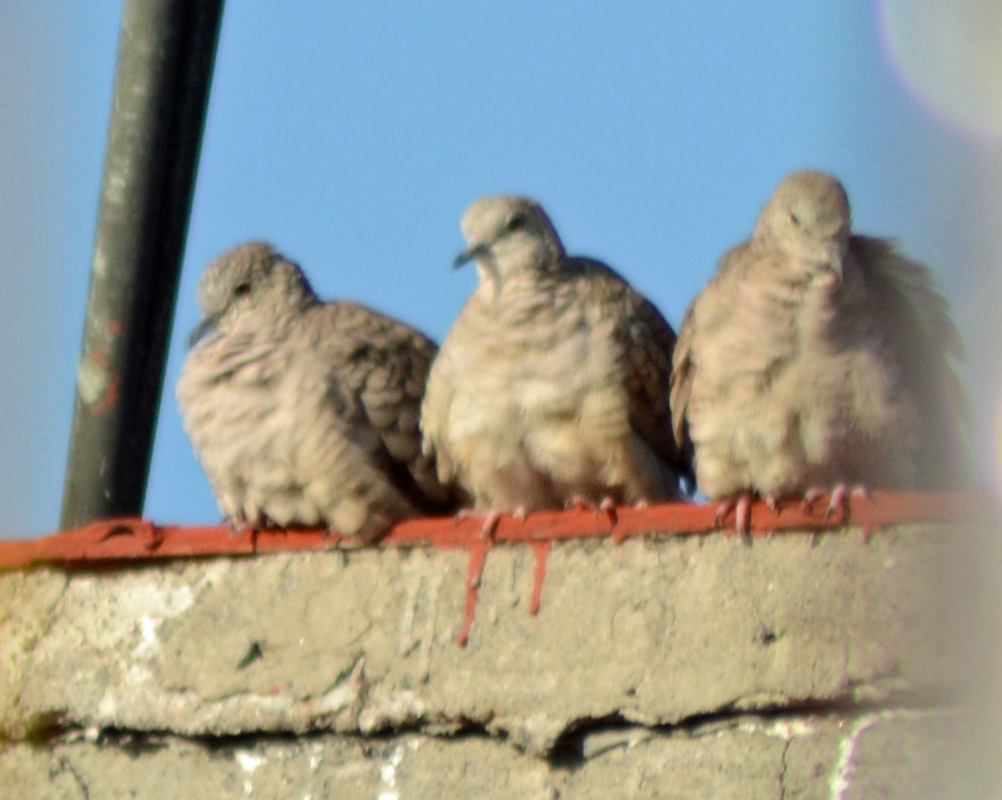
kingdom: Animalia
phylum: Chordata
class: Aves
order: Columbiformes
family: Columbidae
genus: Columbina
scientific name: Columbina inca
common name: Inca dove
